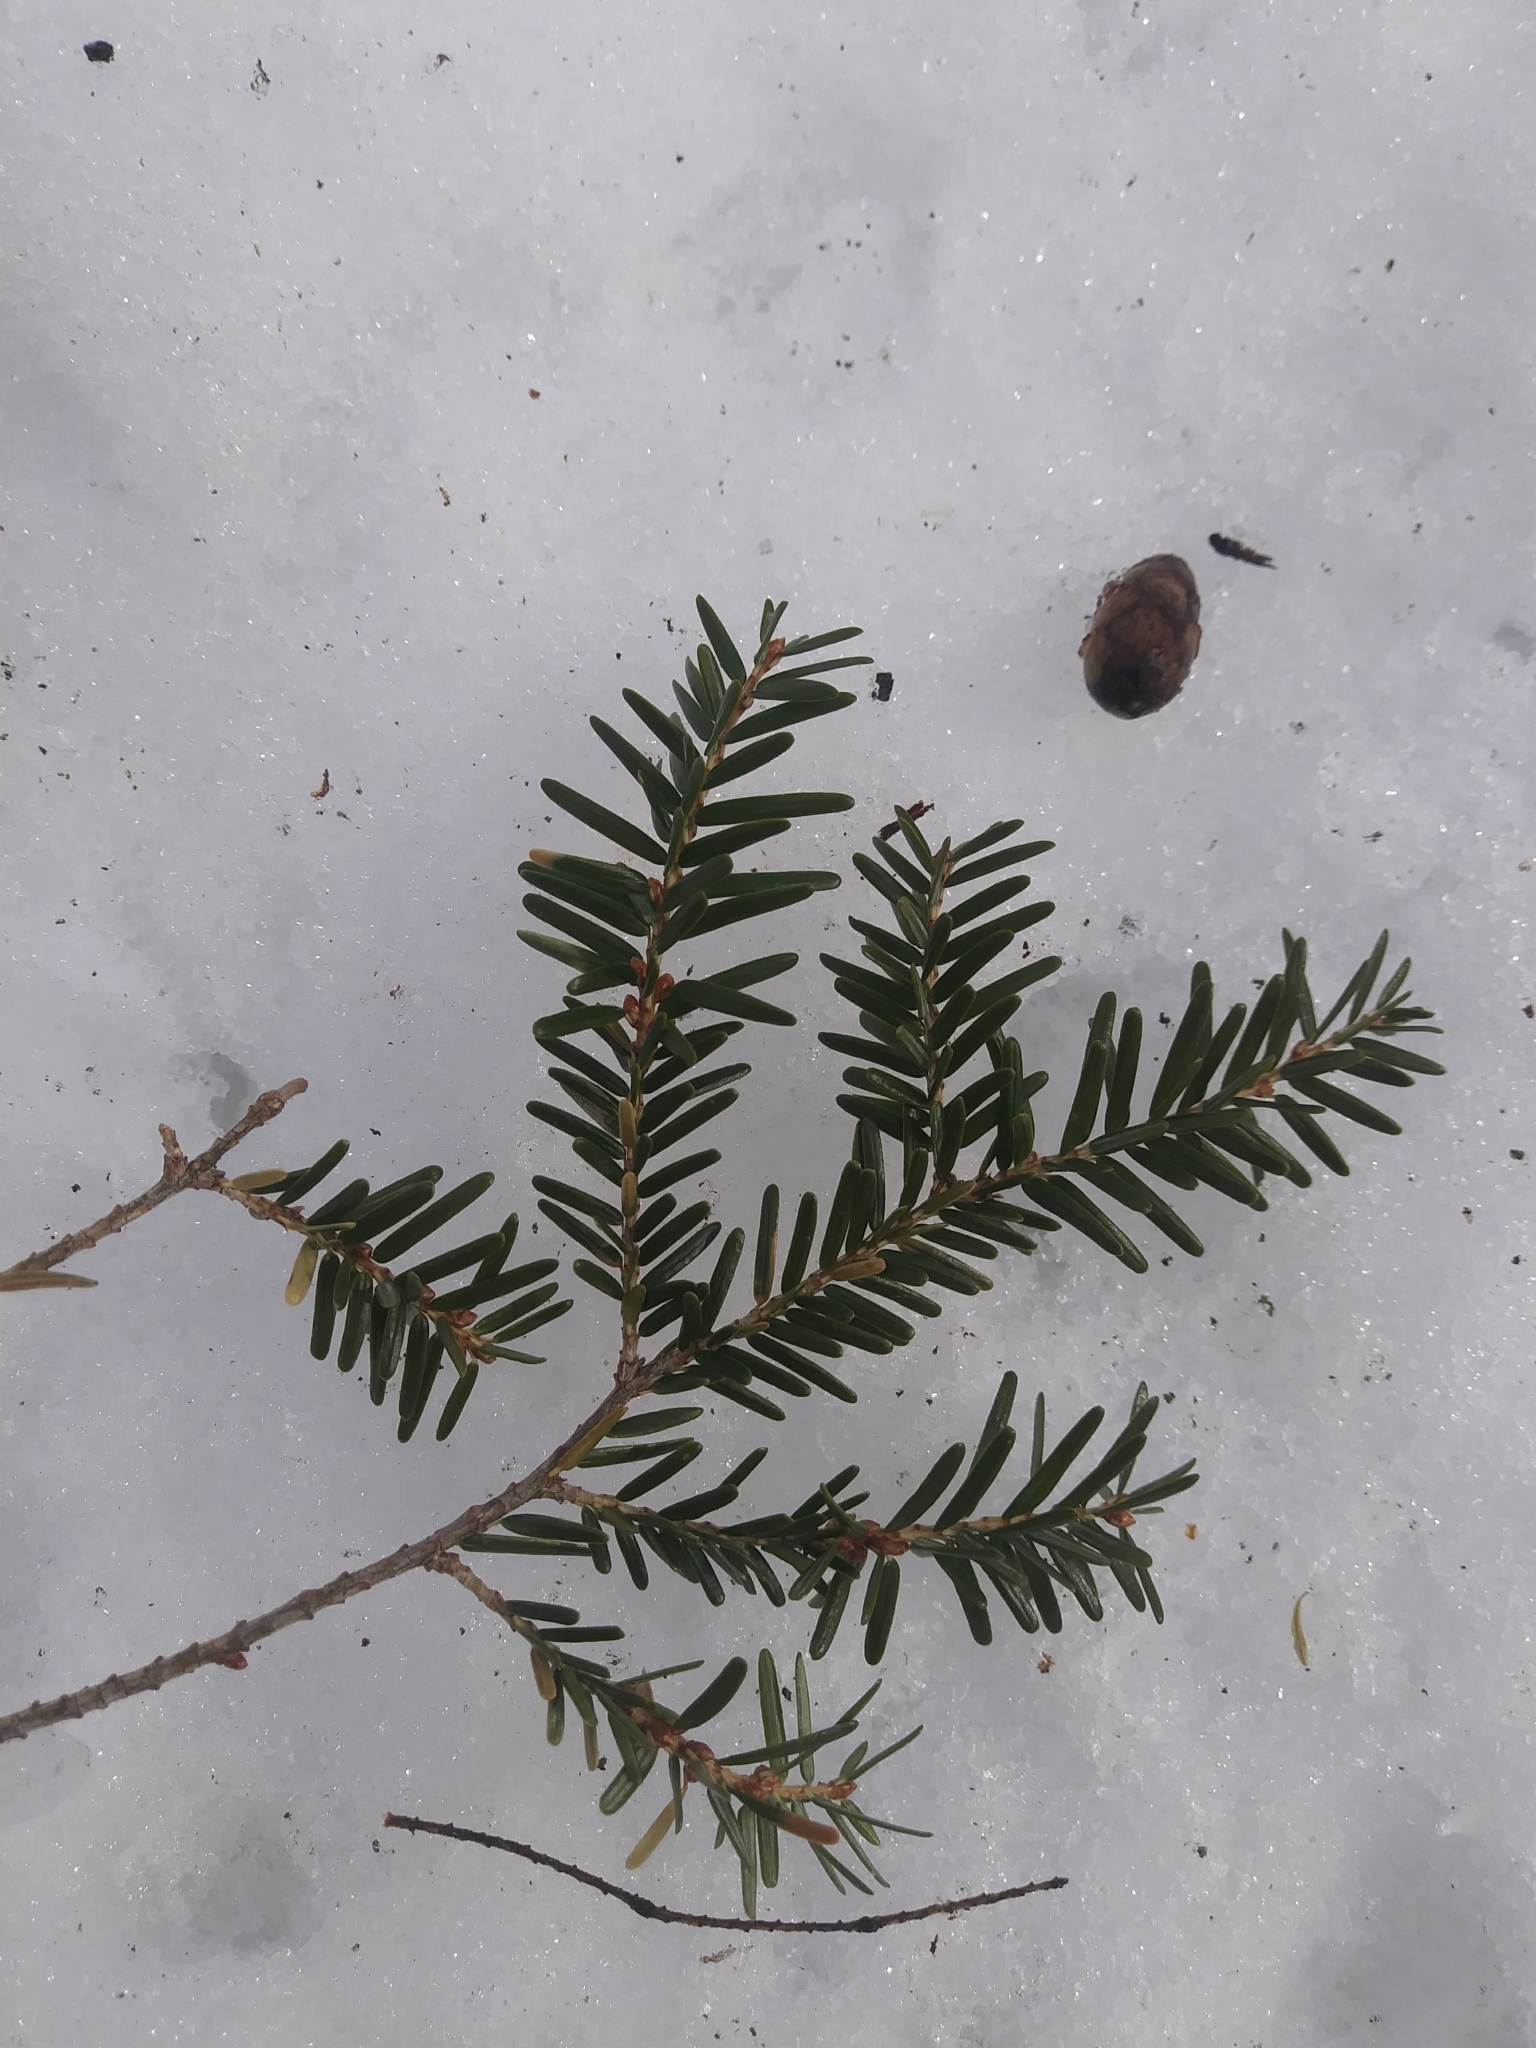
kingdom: Plantae
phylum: Tracheophyta
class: Pinopsida
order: Pinales
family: Pinaceae
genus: Tsuga
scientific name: Tsuga canadensis
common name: Eastern hemlock
